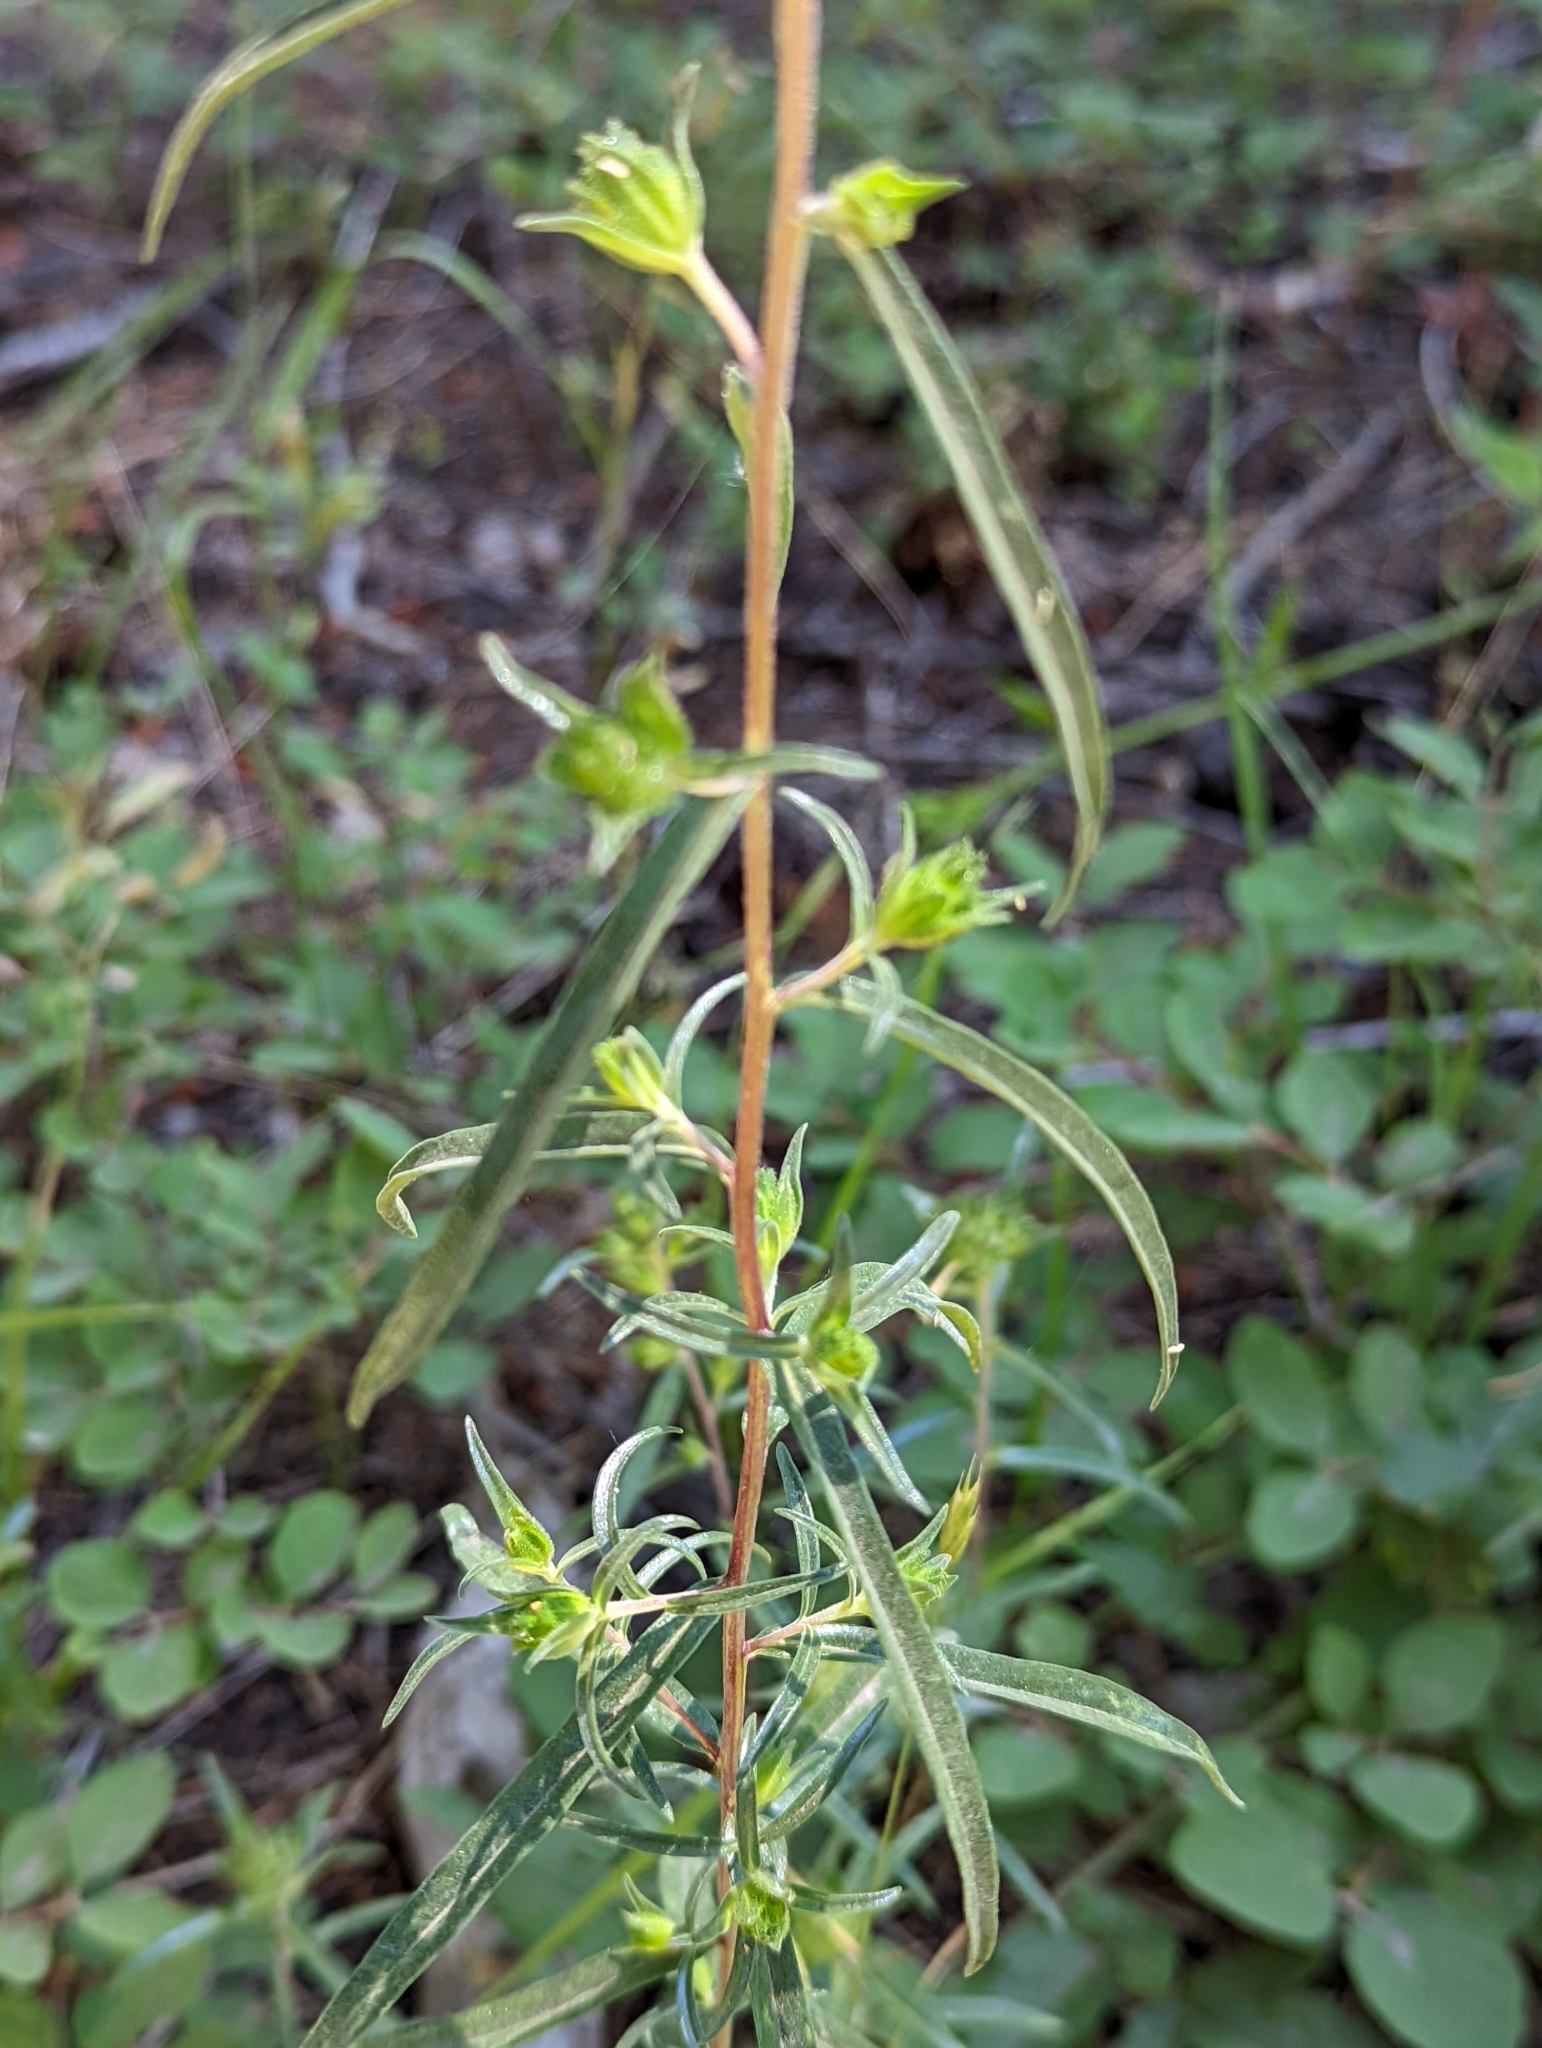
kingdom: Plantae
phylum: Tracheophyta
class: Magnoliopsida
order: Ericales
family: Polemoniaceae
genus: Collomia
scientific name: Collomia grandiflora
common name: California strawflower
